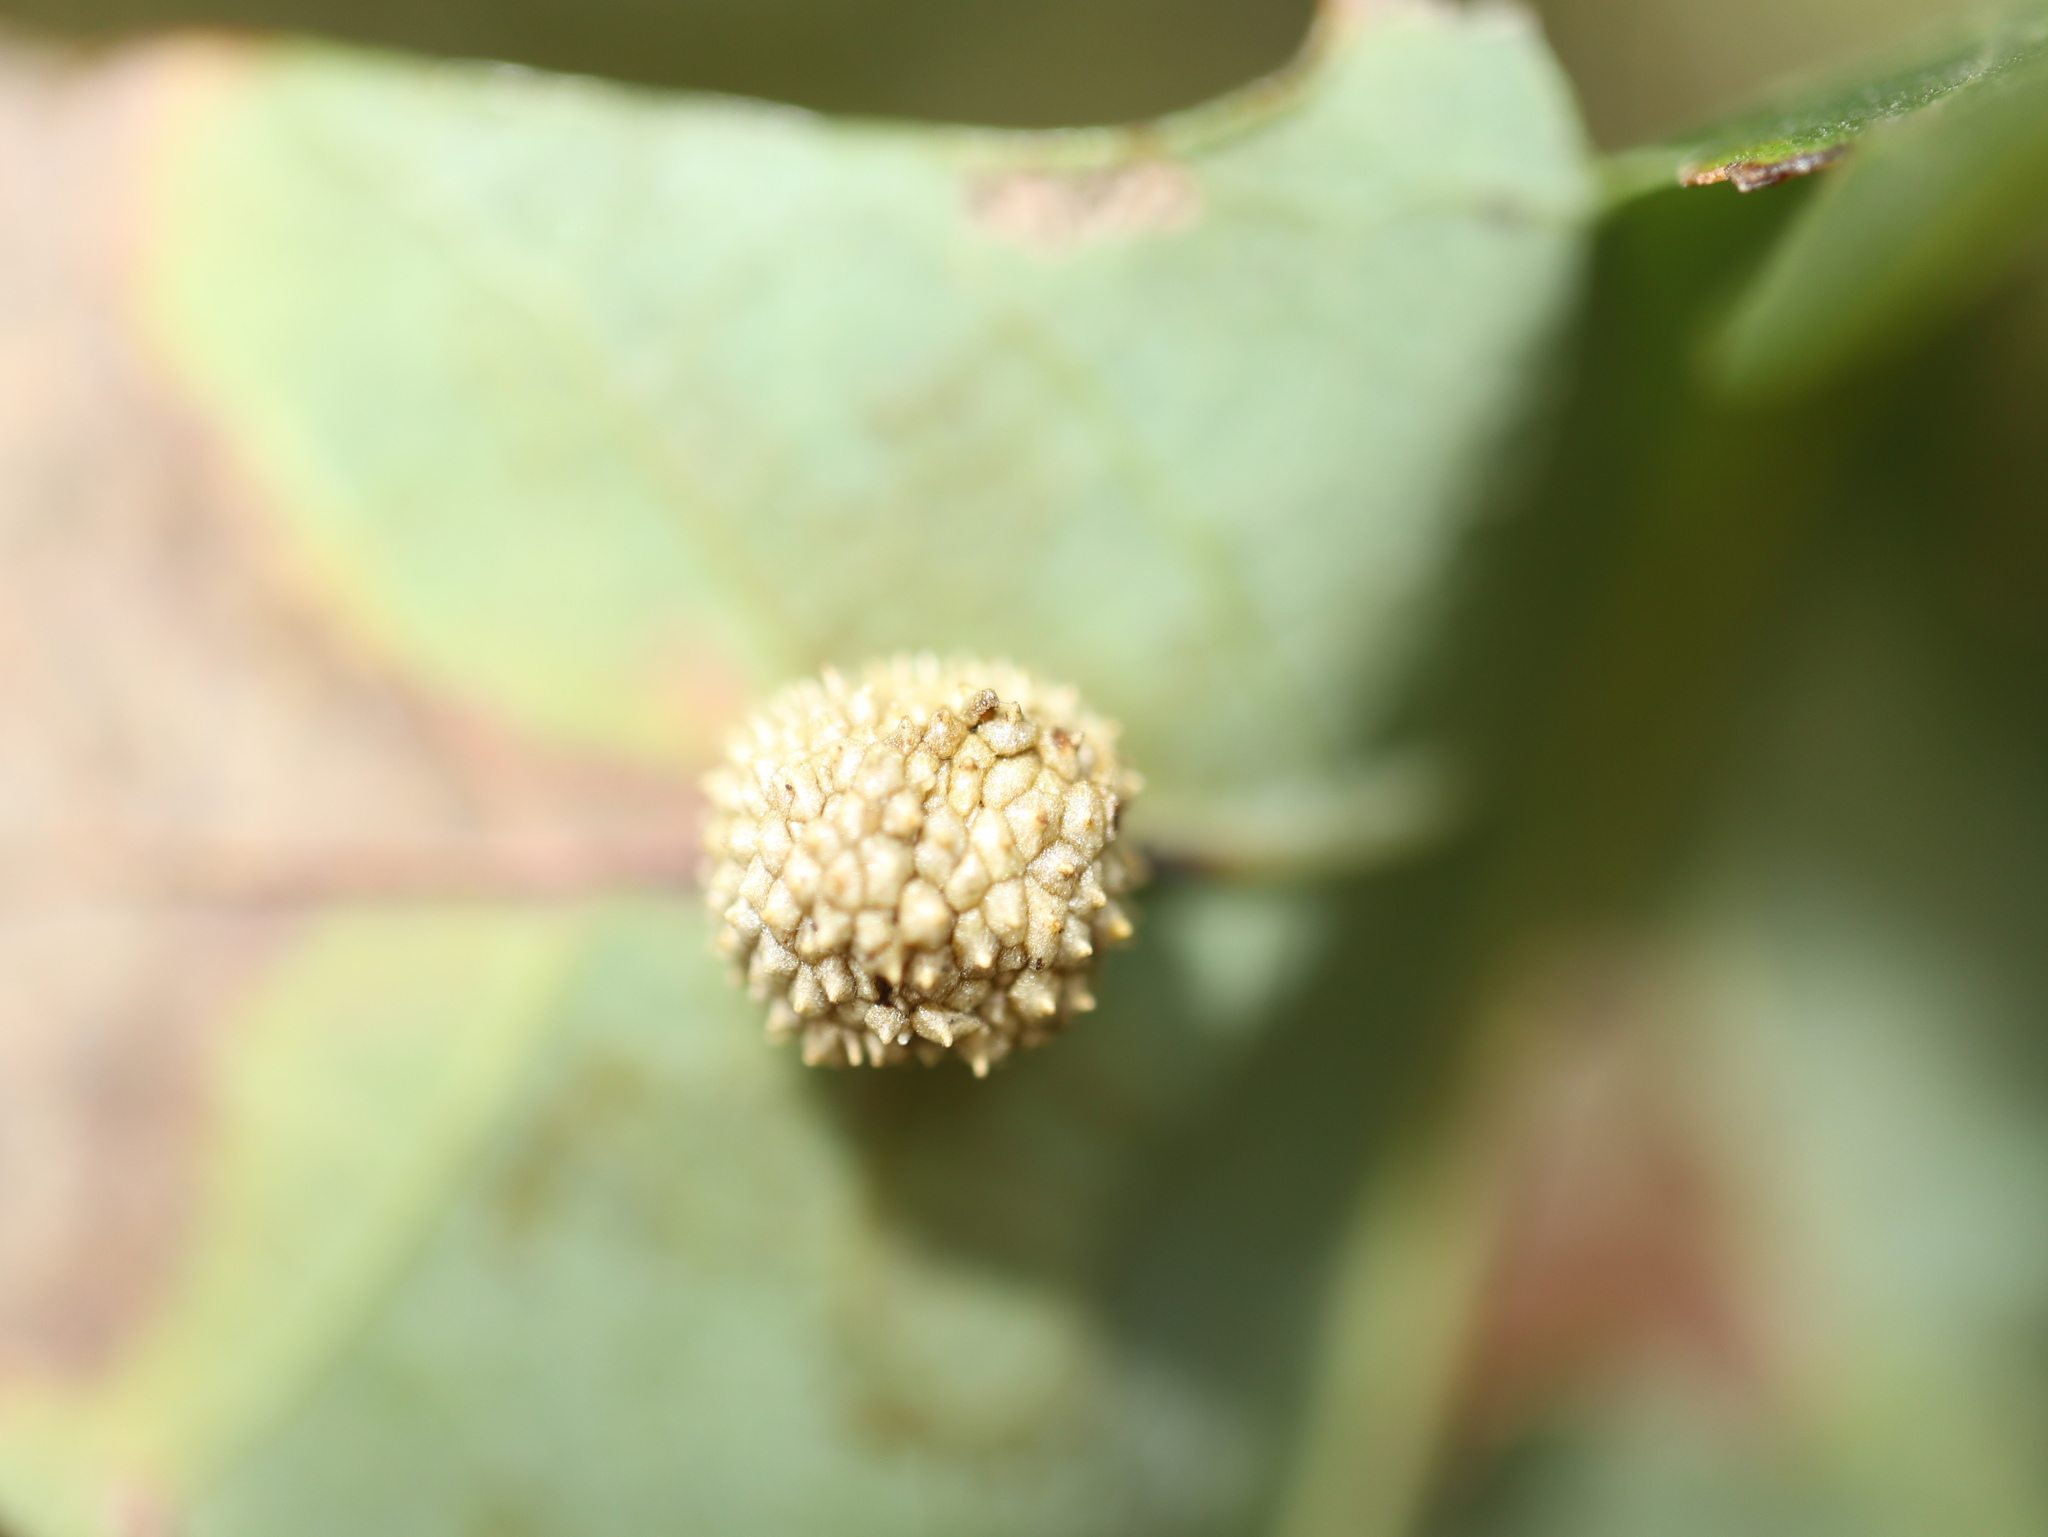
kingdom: Animalia
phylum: Arthropoda
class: Insecta
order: Hymenoptera
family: Cynipidae
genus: Acraspis
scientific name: Acraspis
